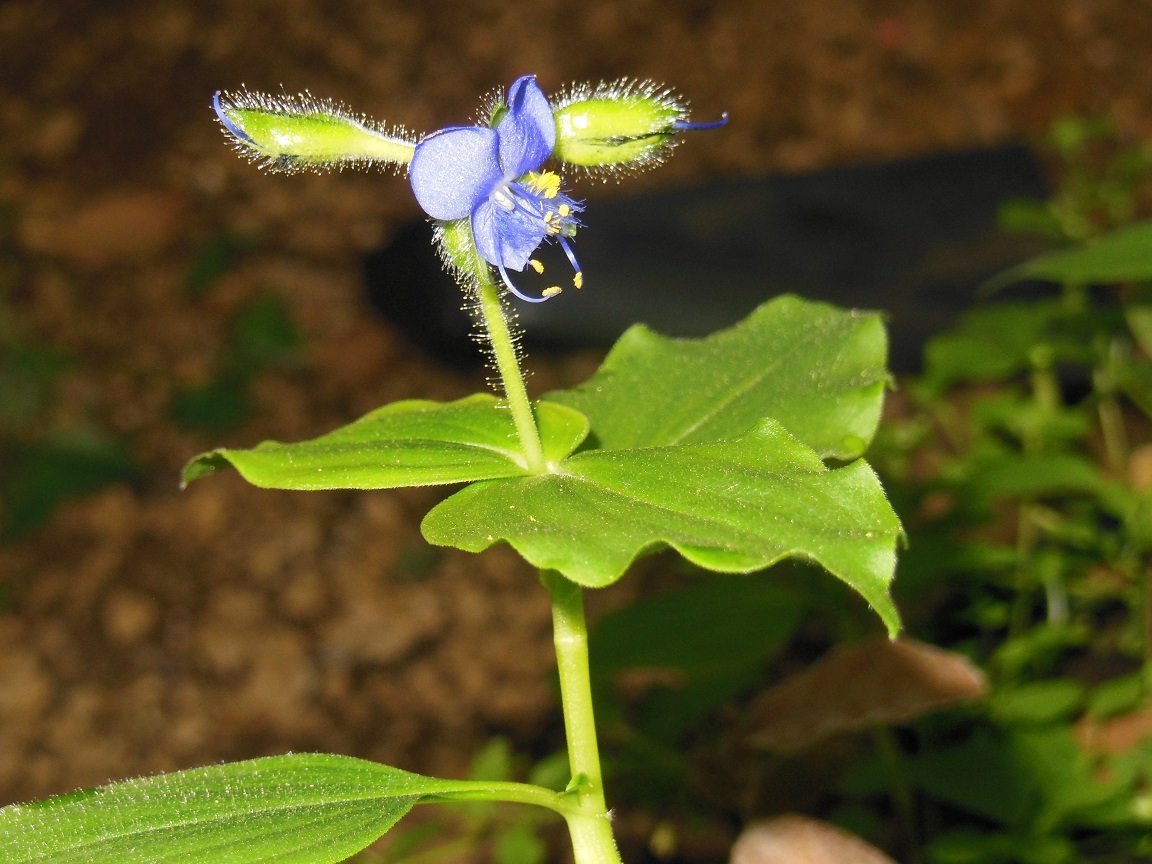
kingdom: Plantae
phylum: Tracheophyta
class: Liliopsida
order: Commelinales
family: Commelinaceae
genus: Tinantia
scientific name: Tinantia erecta
